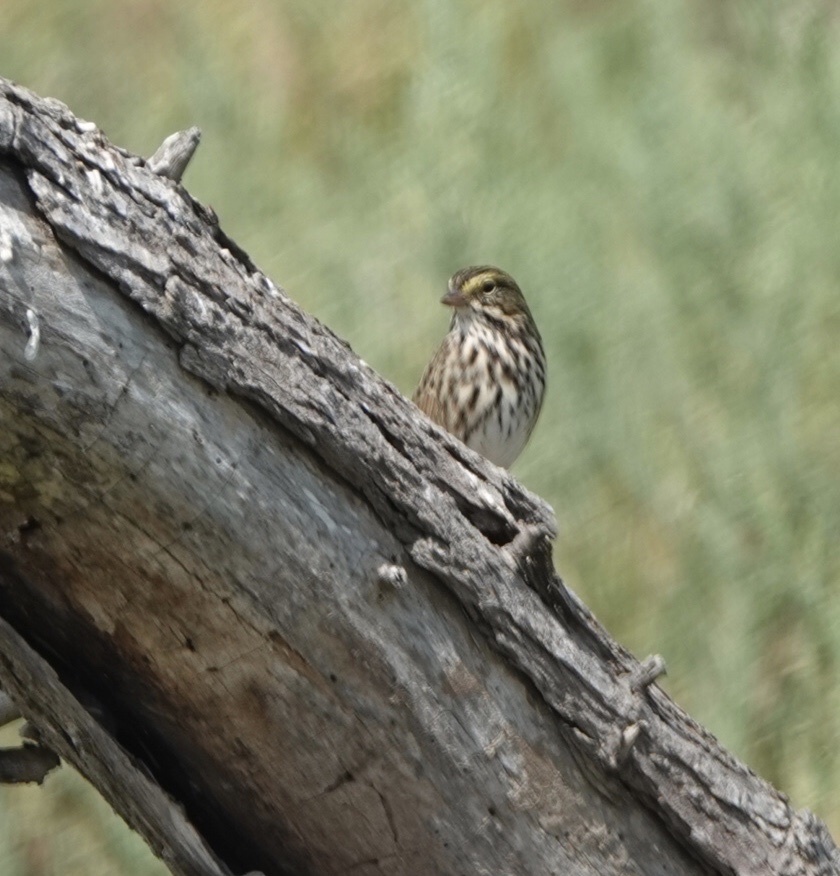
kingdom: Animalia
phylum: Chordata
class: Aves
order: Passeriformes
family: Passerellidae
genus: Passerculus
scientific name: Passerculus sandwichensis
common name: Savannah sparrow
